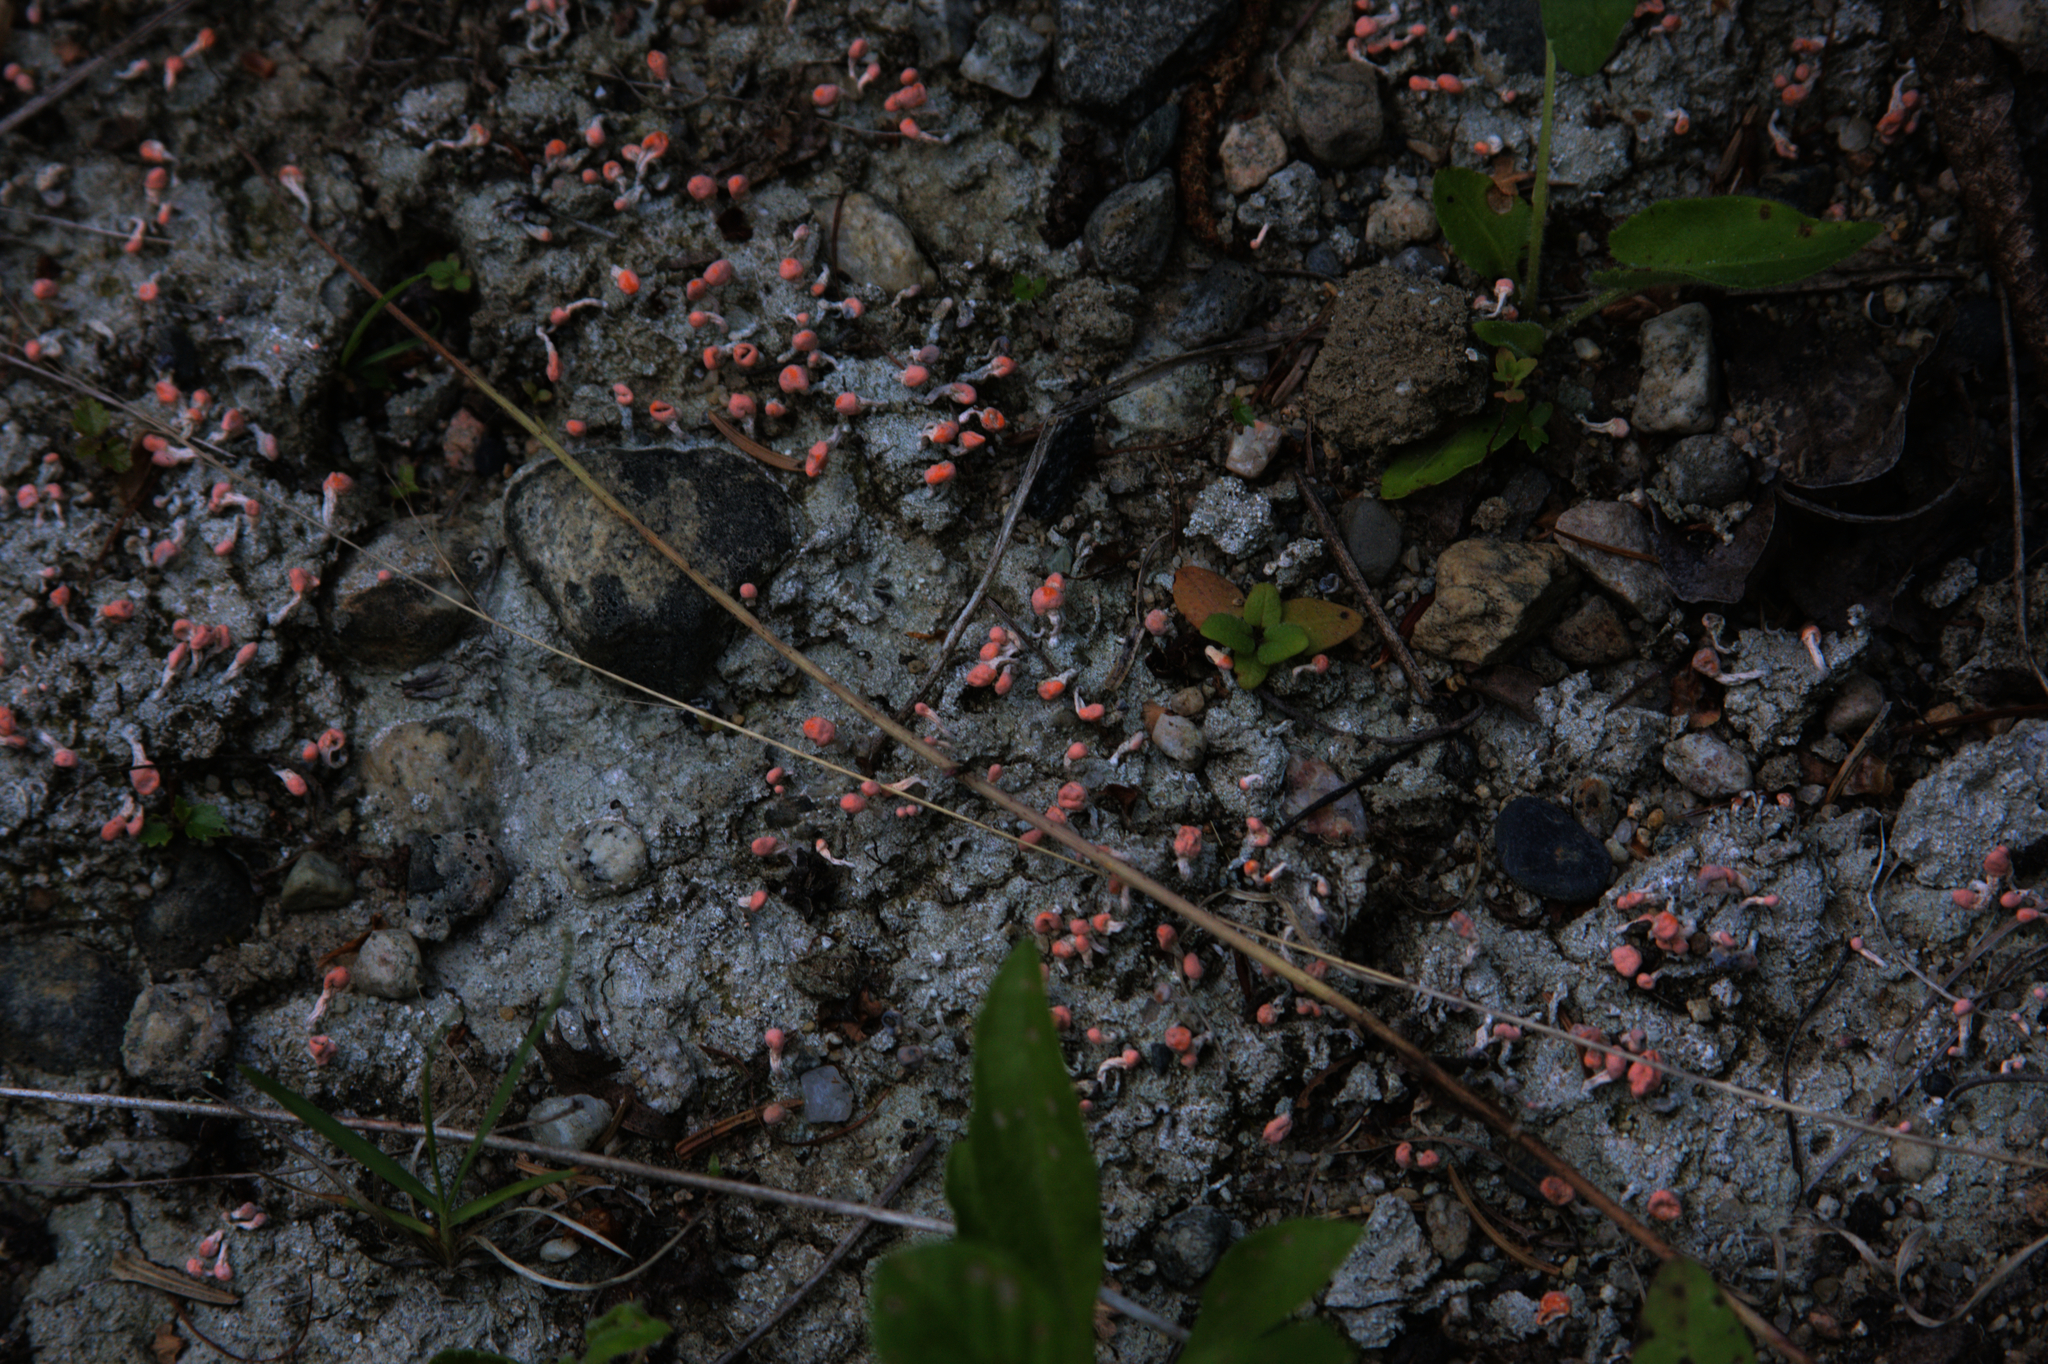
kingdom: Fungi
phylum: Ascomycota
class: Lecanoromycetes
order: Pertusariales
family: Icmadophilaceae
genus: Dibaeis
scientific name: Dibaeis baeomyces
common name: Pink earth lichen
